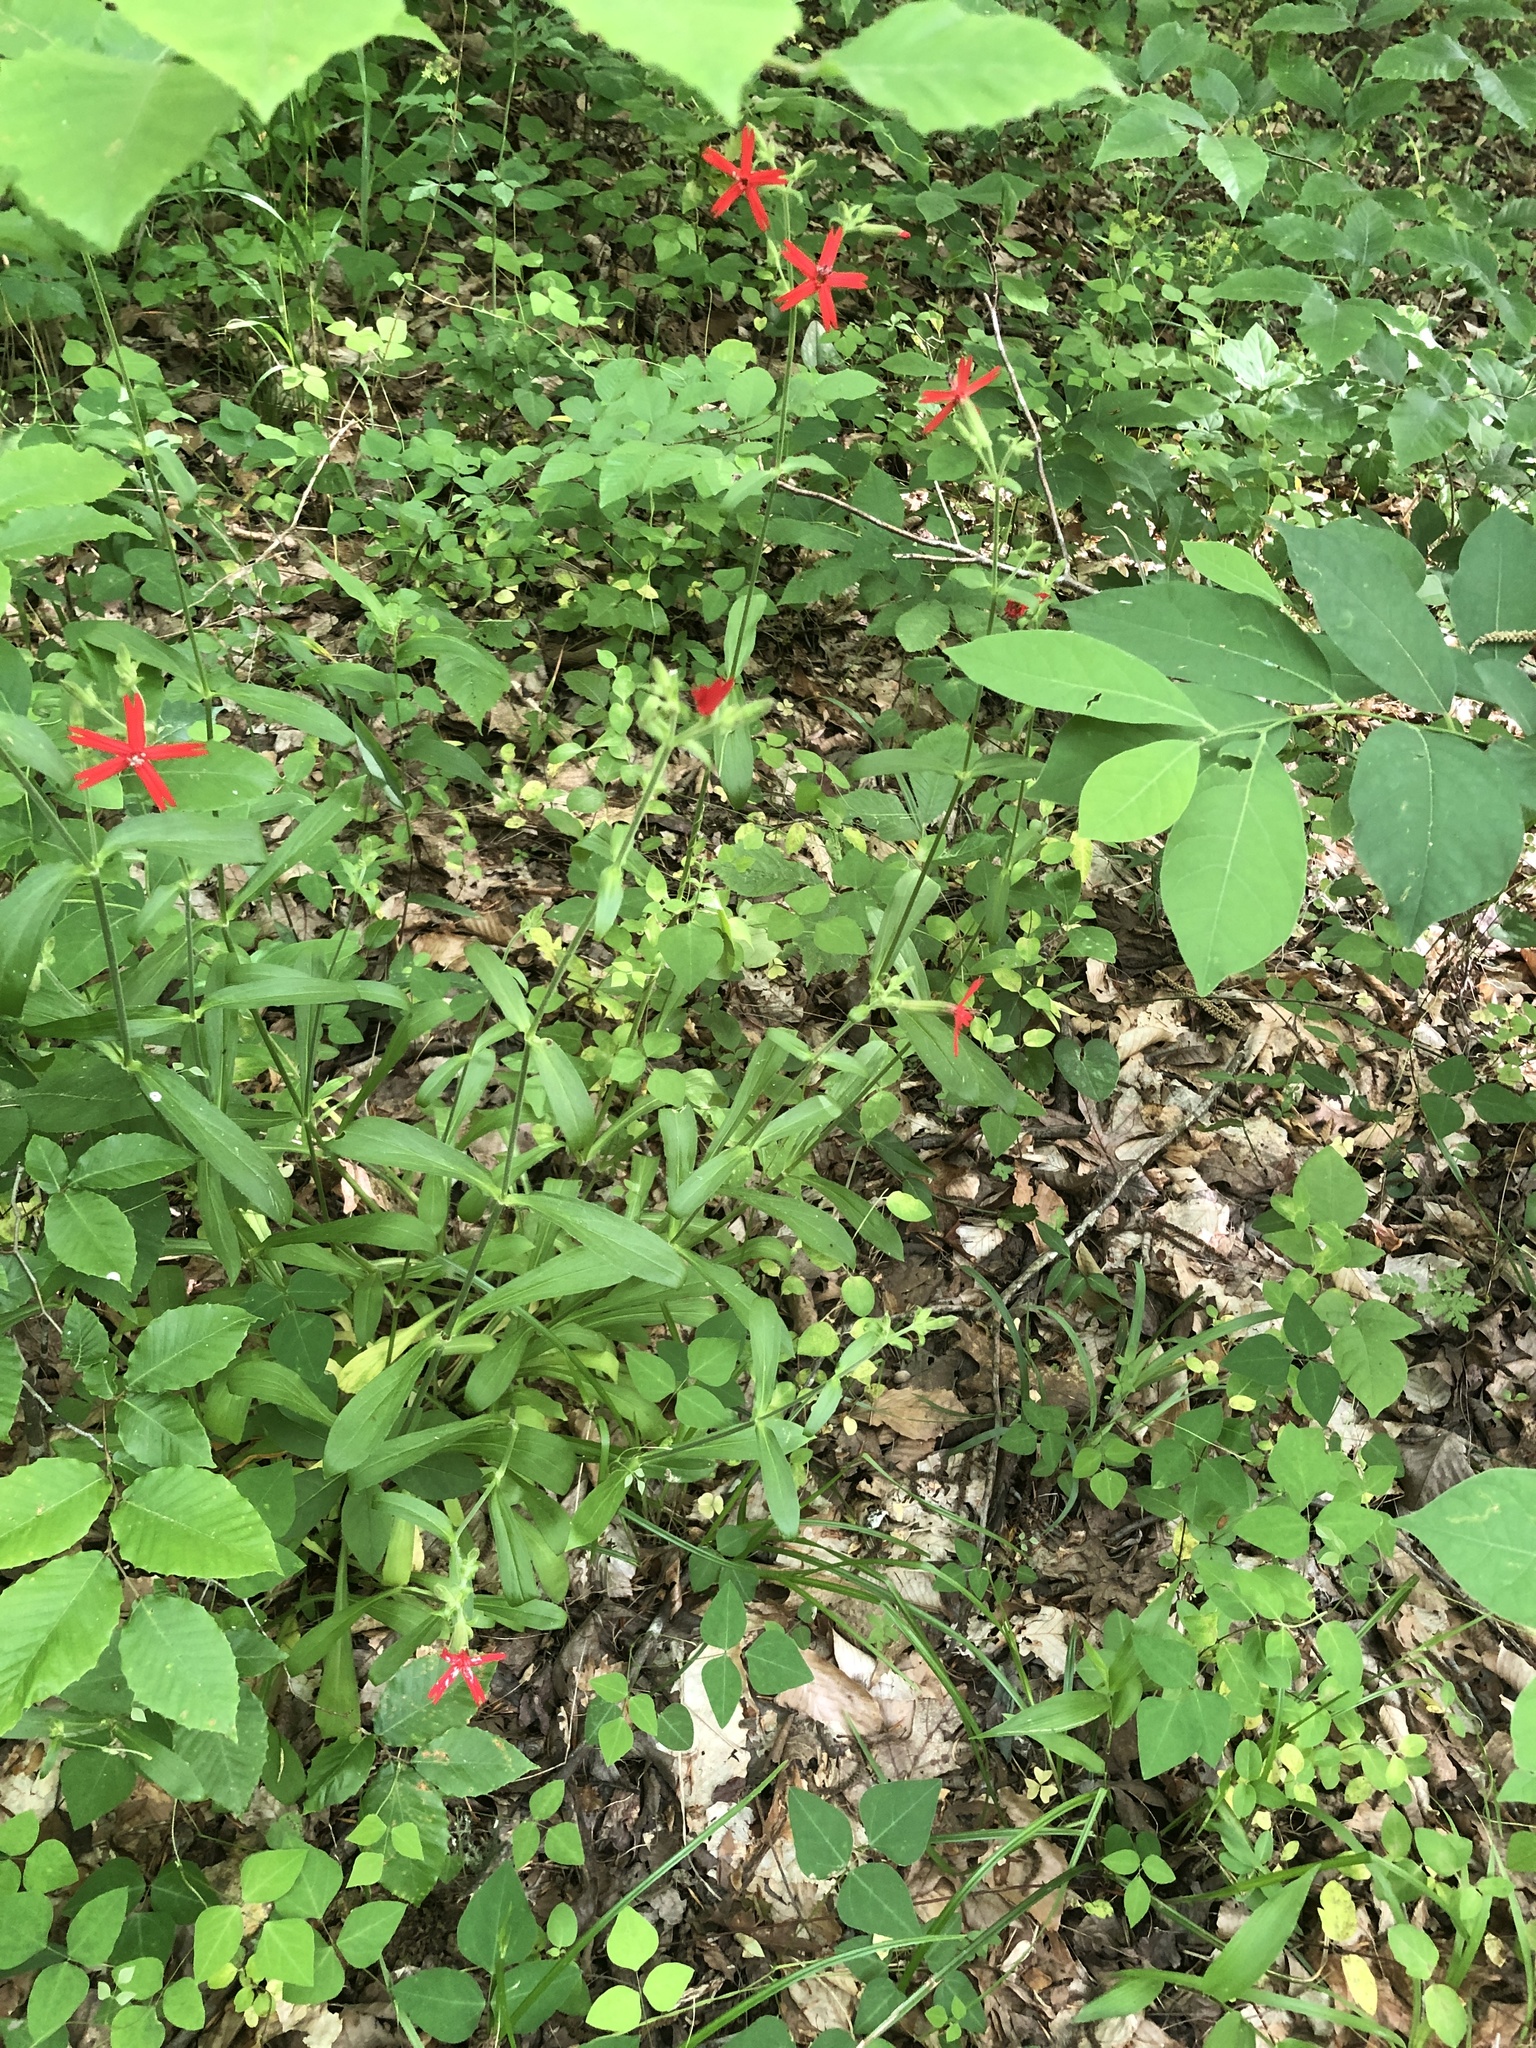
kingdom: Plantae
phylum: Tracheophyta
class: Magnoliopsida
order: Caryophyllales
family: Caryophyllaceae
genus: Silene
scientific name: Silene virginica
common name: Fire-pink
